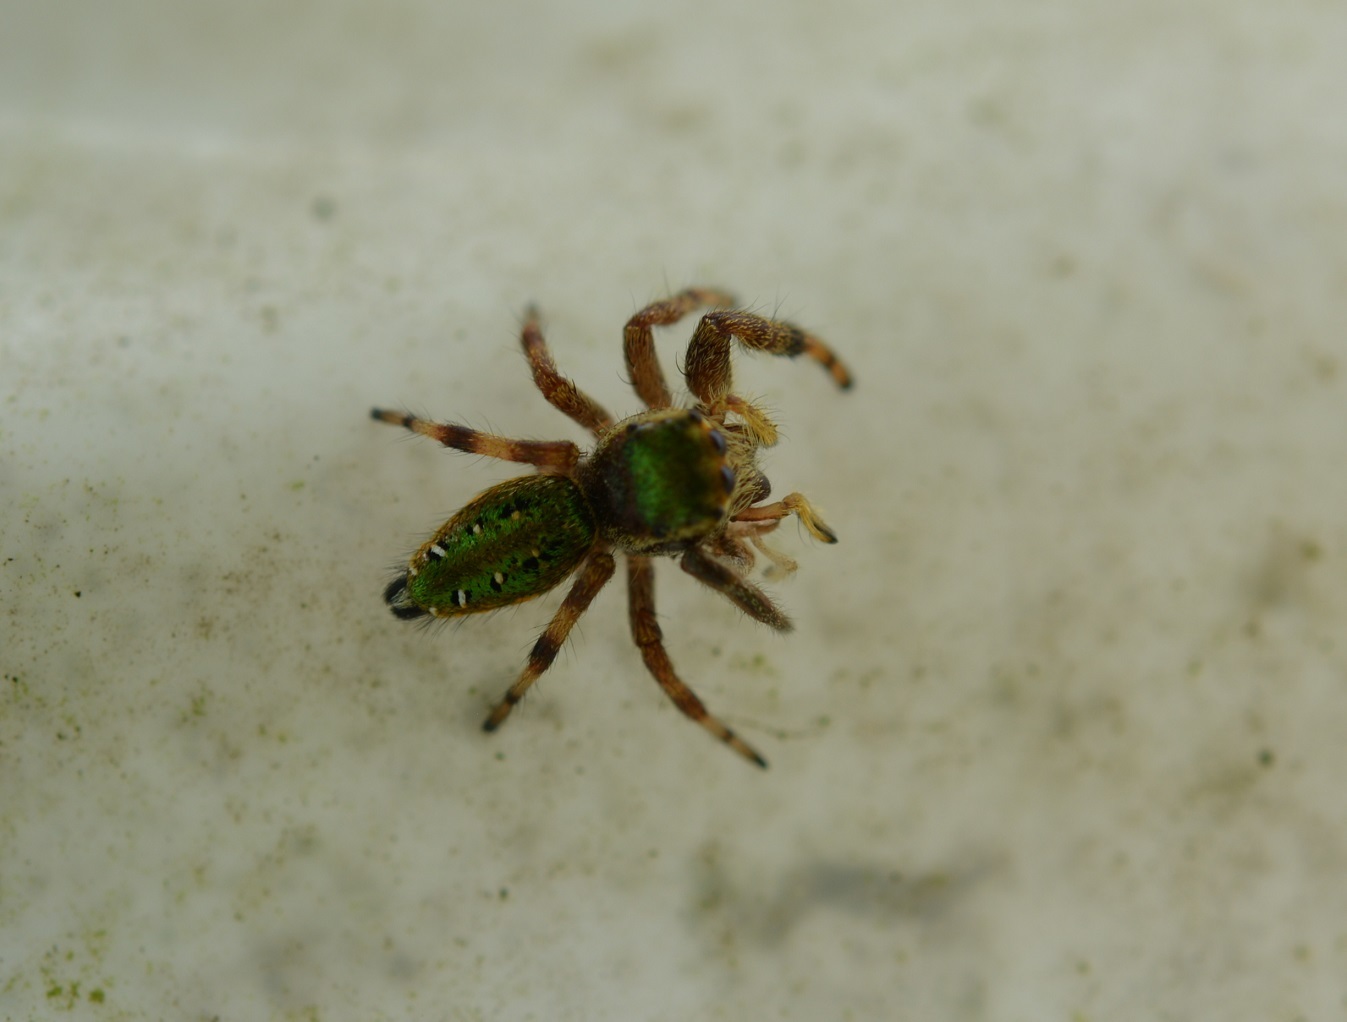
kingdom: Animalia
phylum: Arthropoda
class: Arachnida
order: Araneae
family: Salticidae
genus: Paraphidippus
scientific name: Paraphidippus aurantius
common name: Jumping spiders
